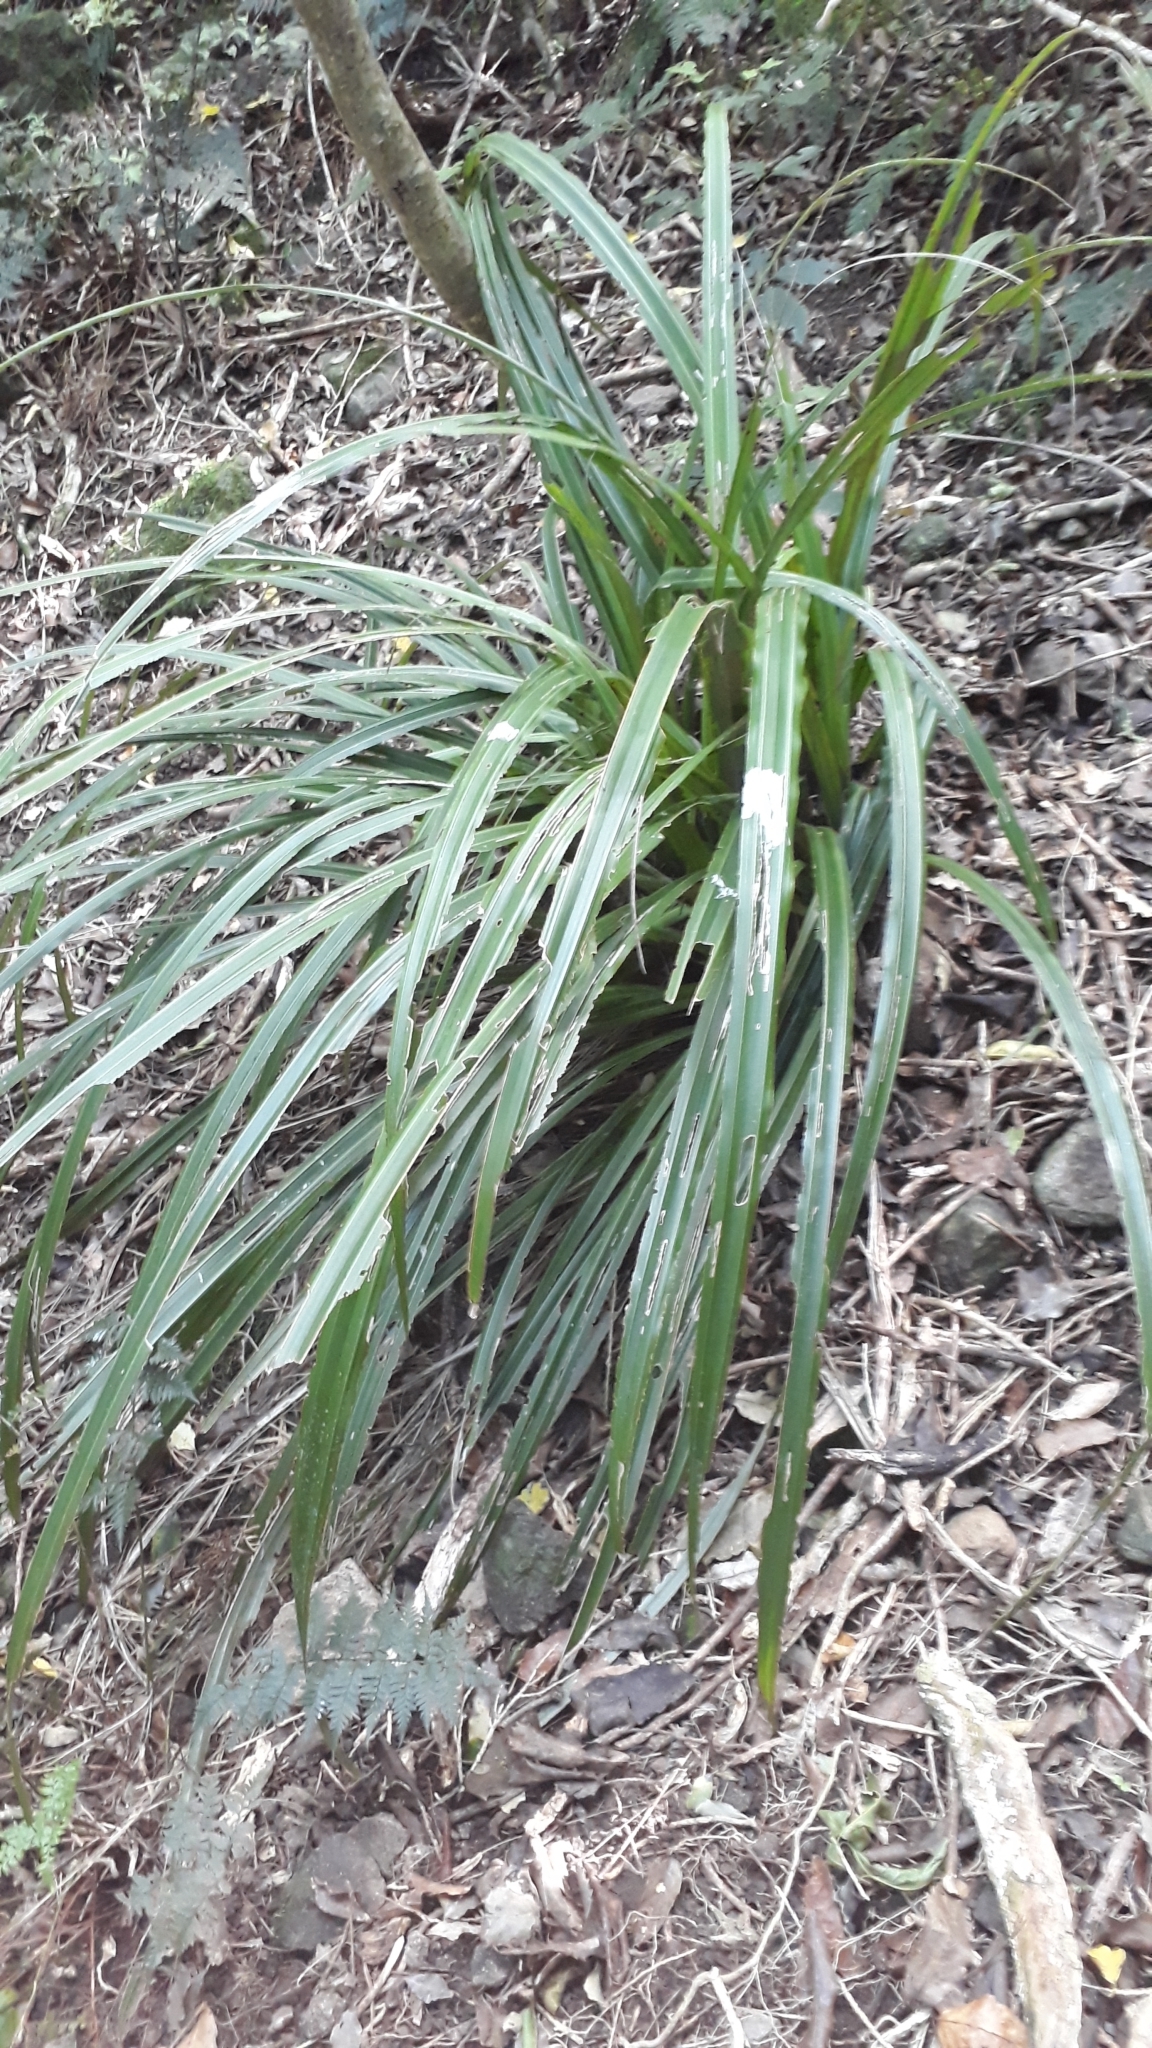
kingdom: Plantae
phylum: Tracheophyta
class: Liliopsida
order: Asparagales
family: Asteliaceae
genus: Astelia
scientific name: Astelia fragrans
